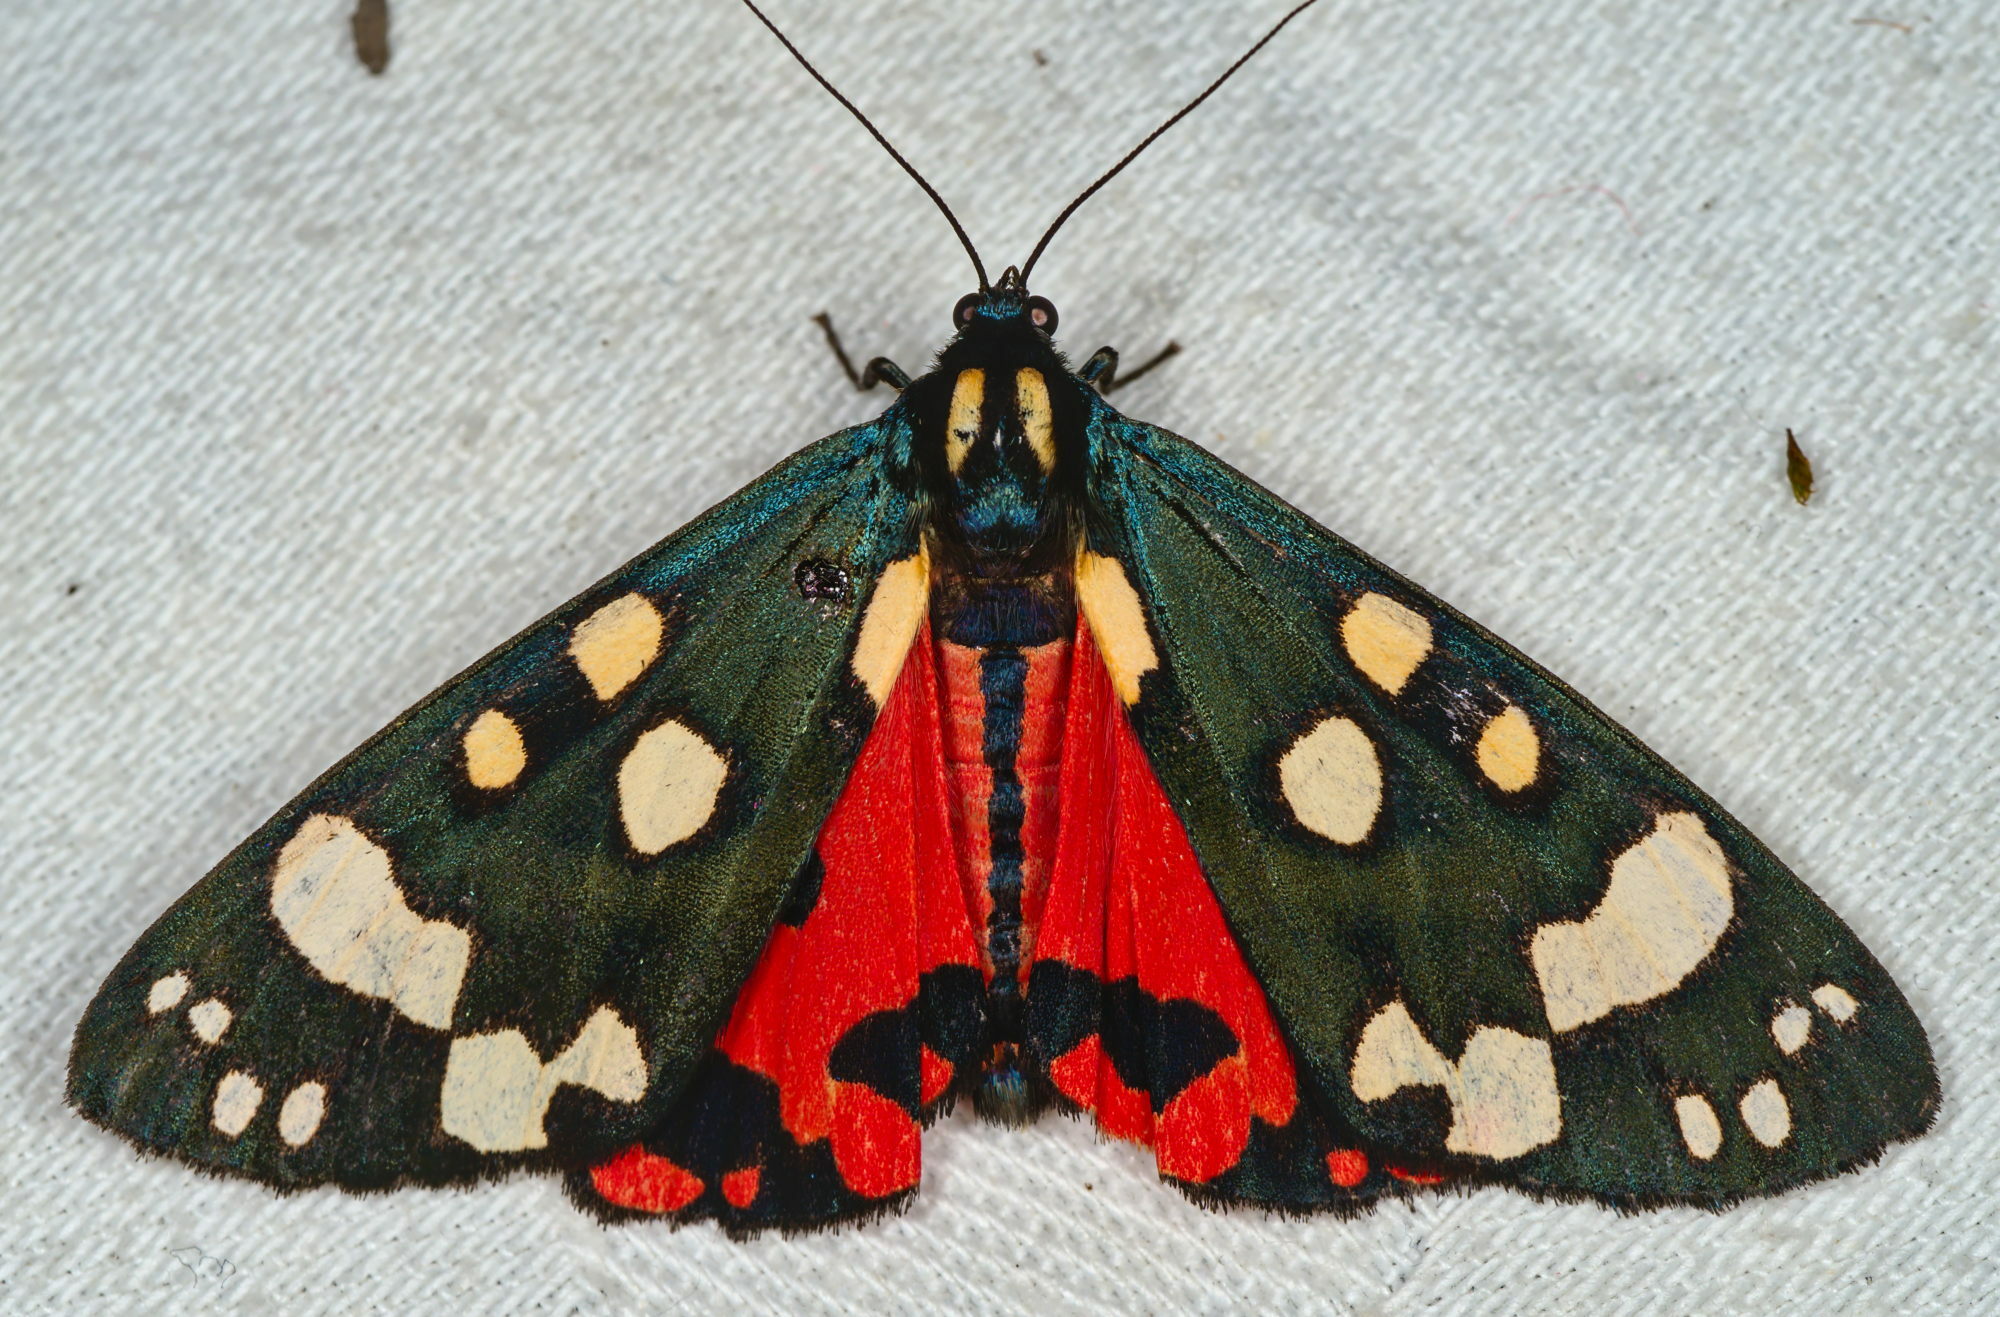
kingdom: Animalia
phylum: Arthropoda
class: Insecta
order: Lepidoptera
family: Erebidae
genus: Callimorpha
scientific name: Callimorpha dominula
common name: Scarlet tiger
